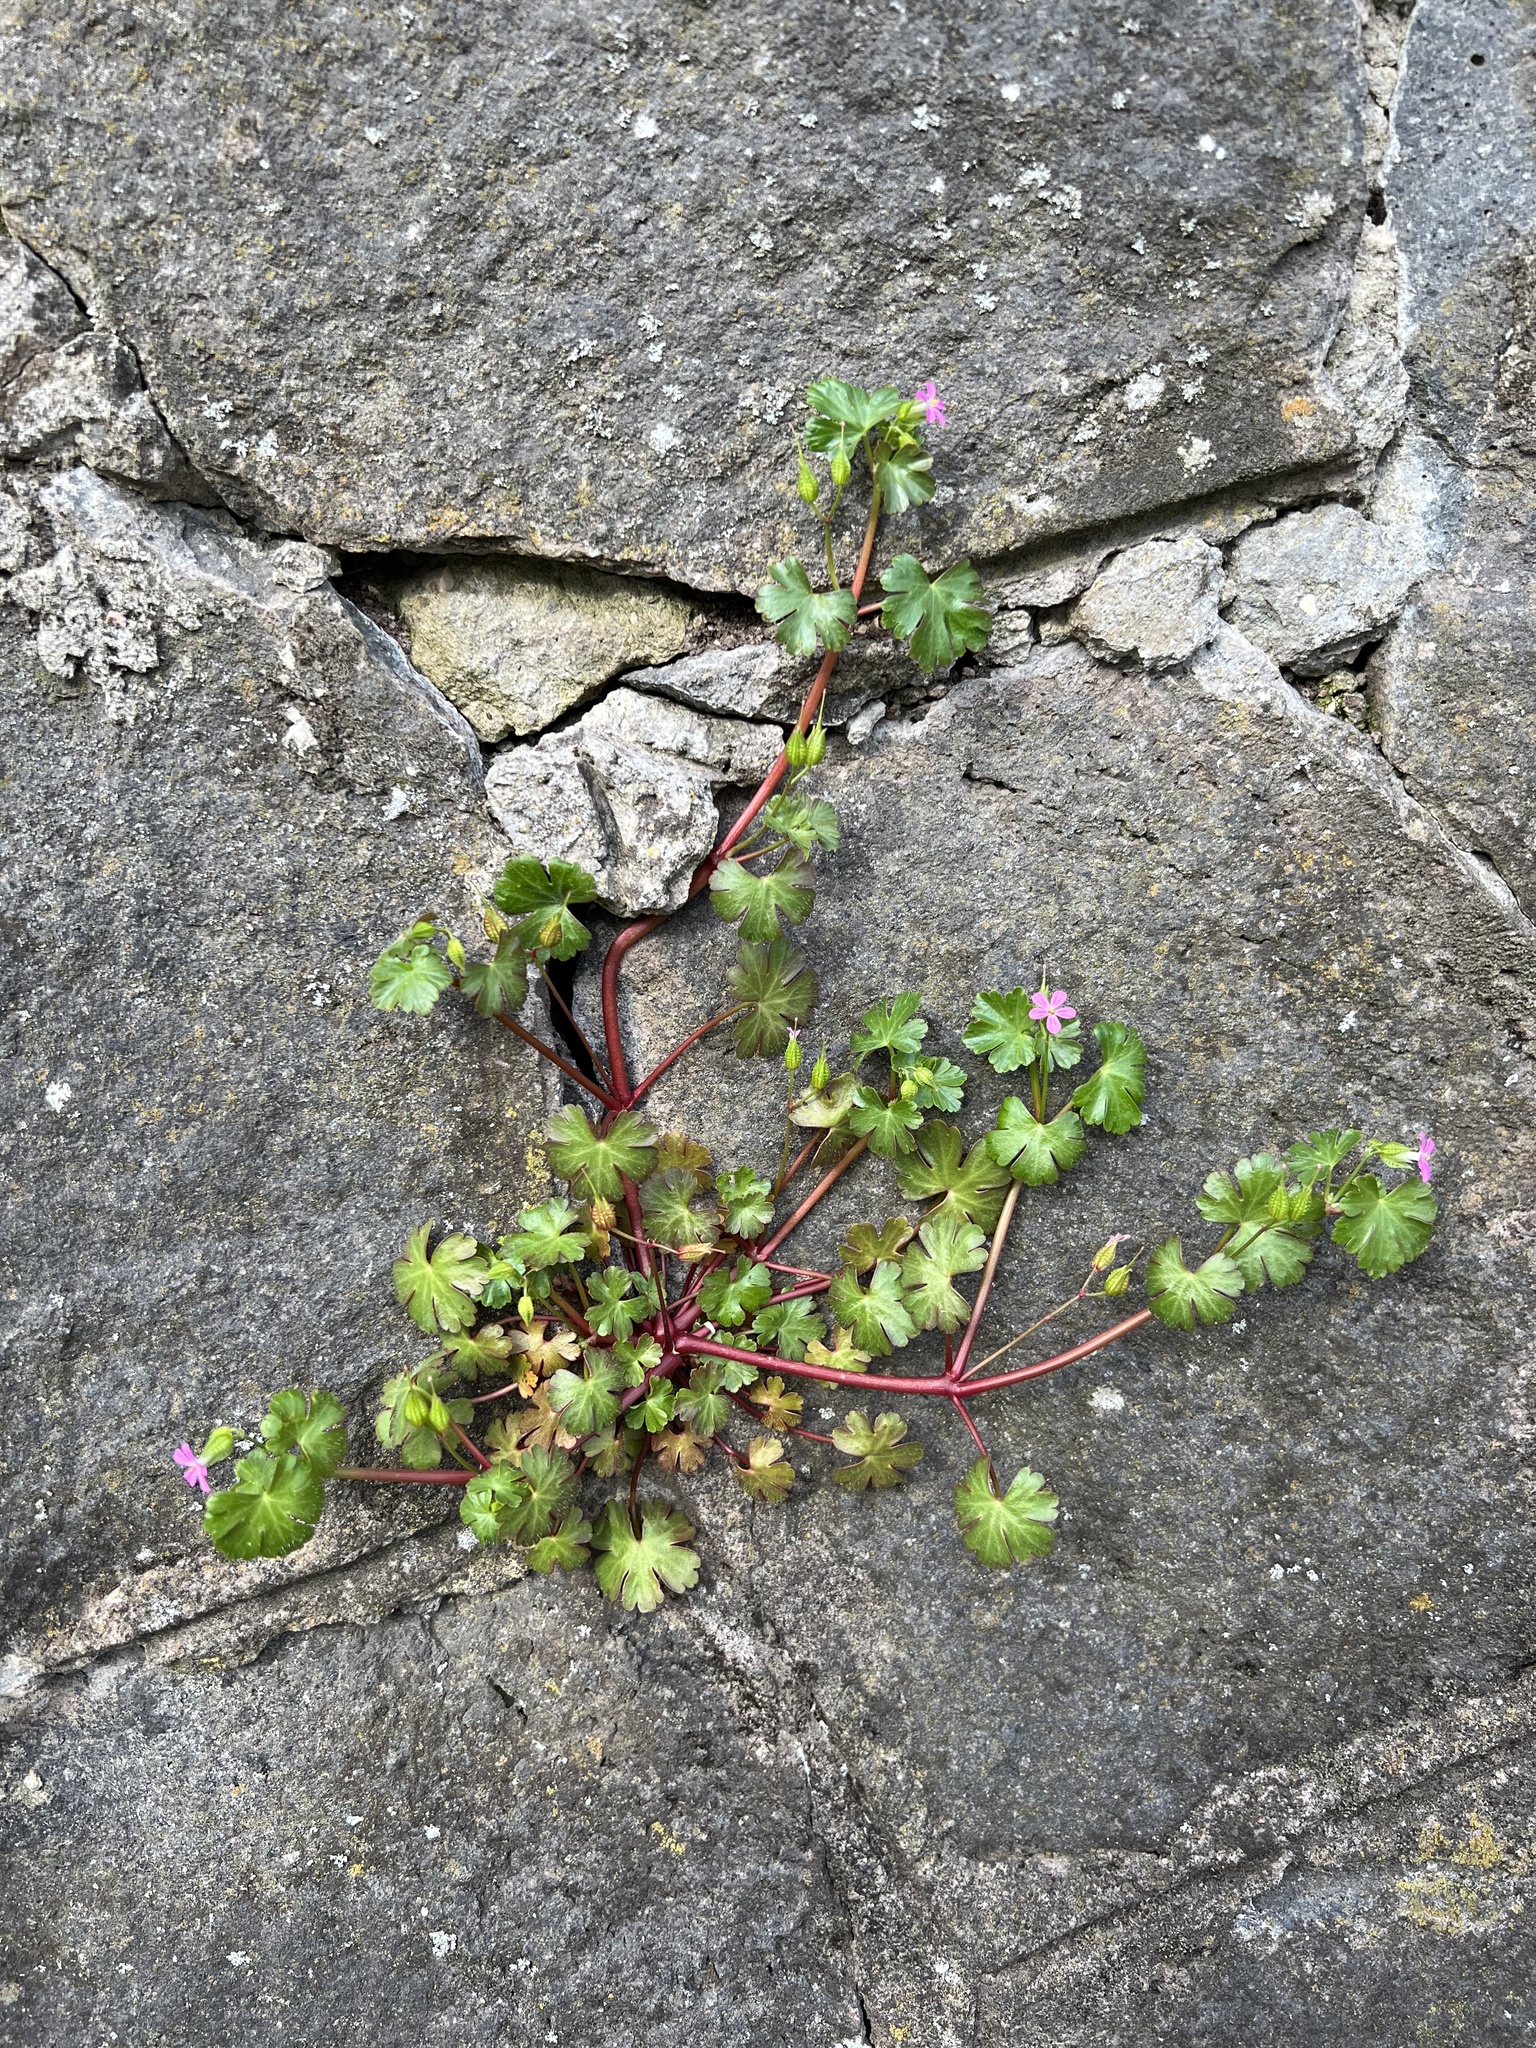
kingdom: Plantae
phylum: Tracheophyta
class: Magnoliopsida
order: Geraniales
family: Geraniaceae
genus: Geranium
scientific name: Geranium lucidum
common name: Shining crane's-bill
